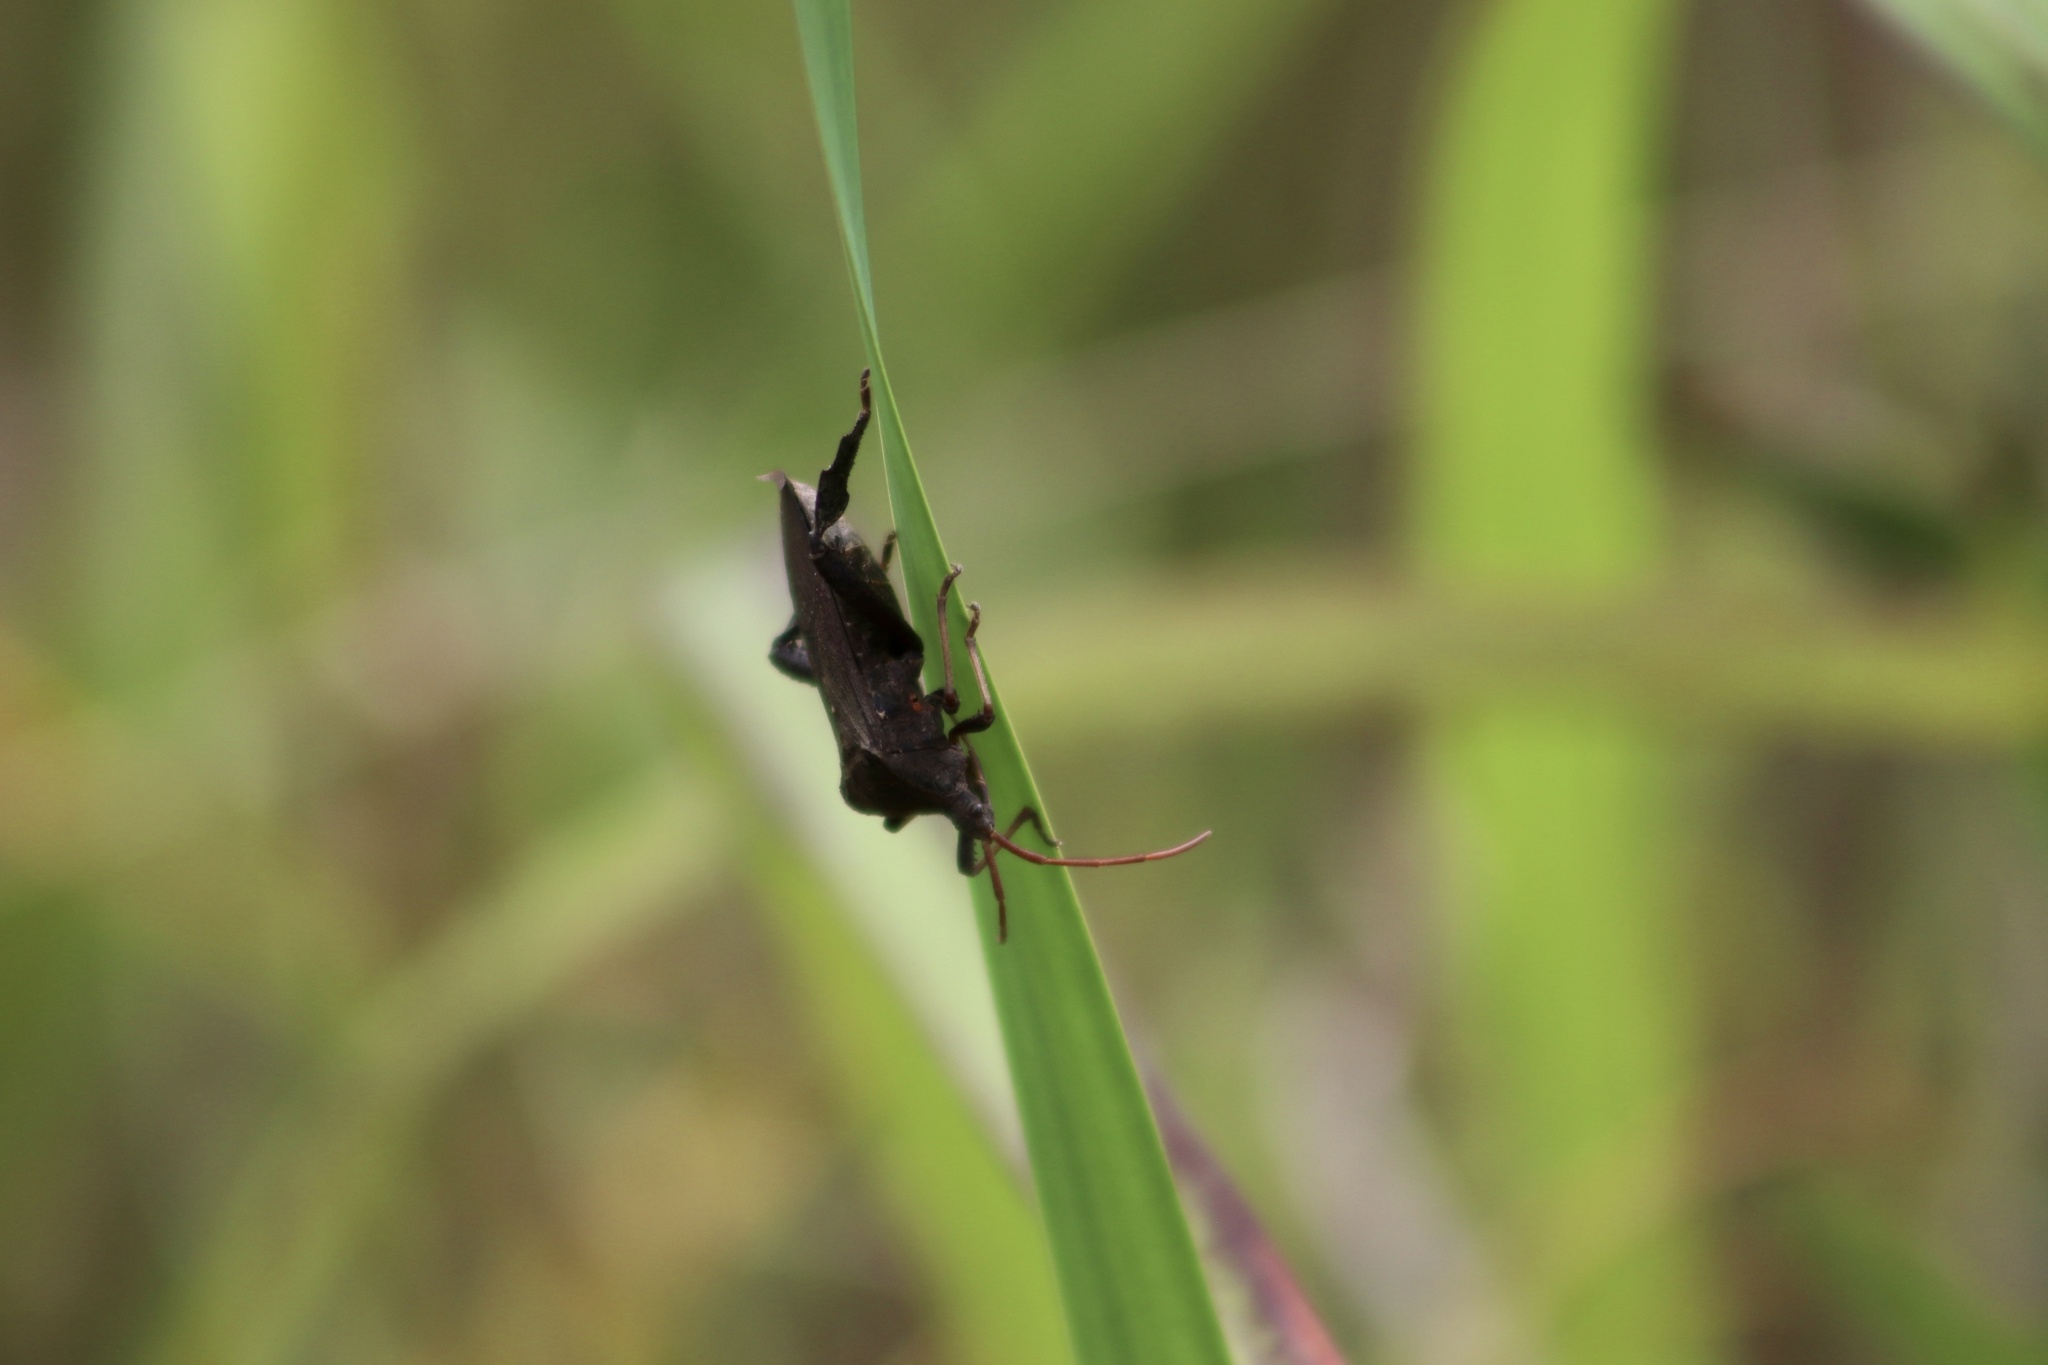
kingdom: Animalia
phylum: Arthropoda
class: Insecta
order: Hemiptera
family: Coreidae
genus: Acanthocephala
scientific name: Acanthocephala femorata
